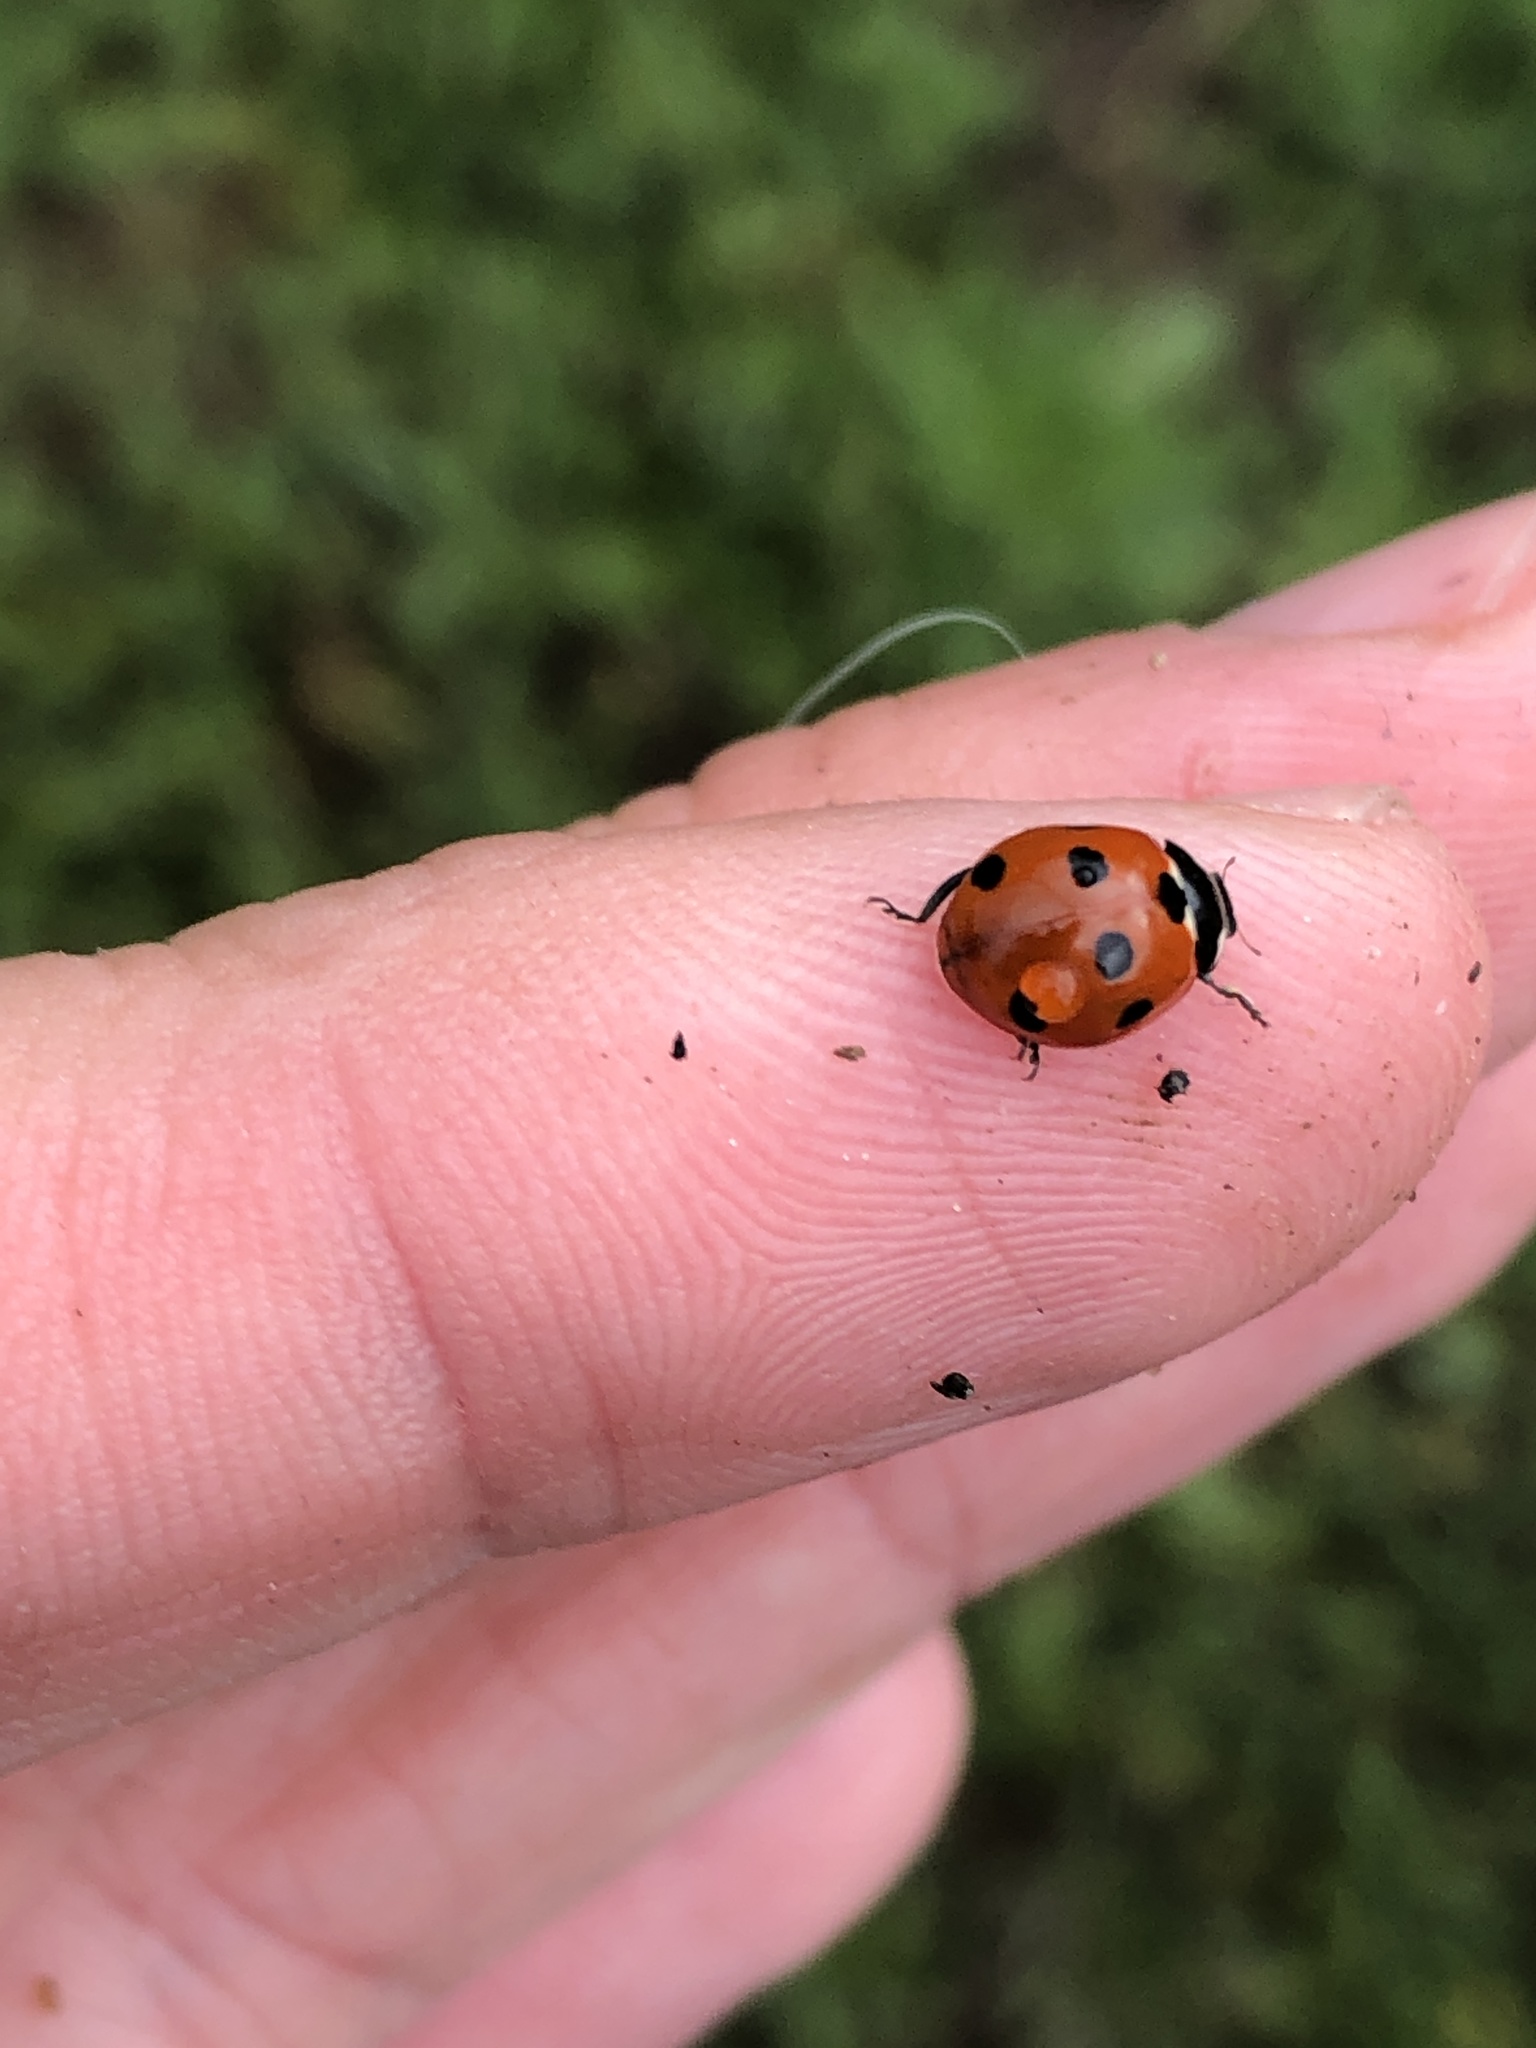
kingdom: Animalia
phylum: Arthropoda
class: Insecta
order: Coleoptera
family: Coccinellidae
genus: Coccinella
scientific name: Coccinella septempunctata
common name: Sevenspotted lady beetle
